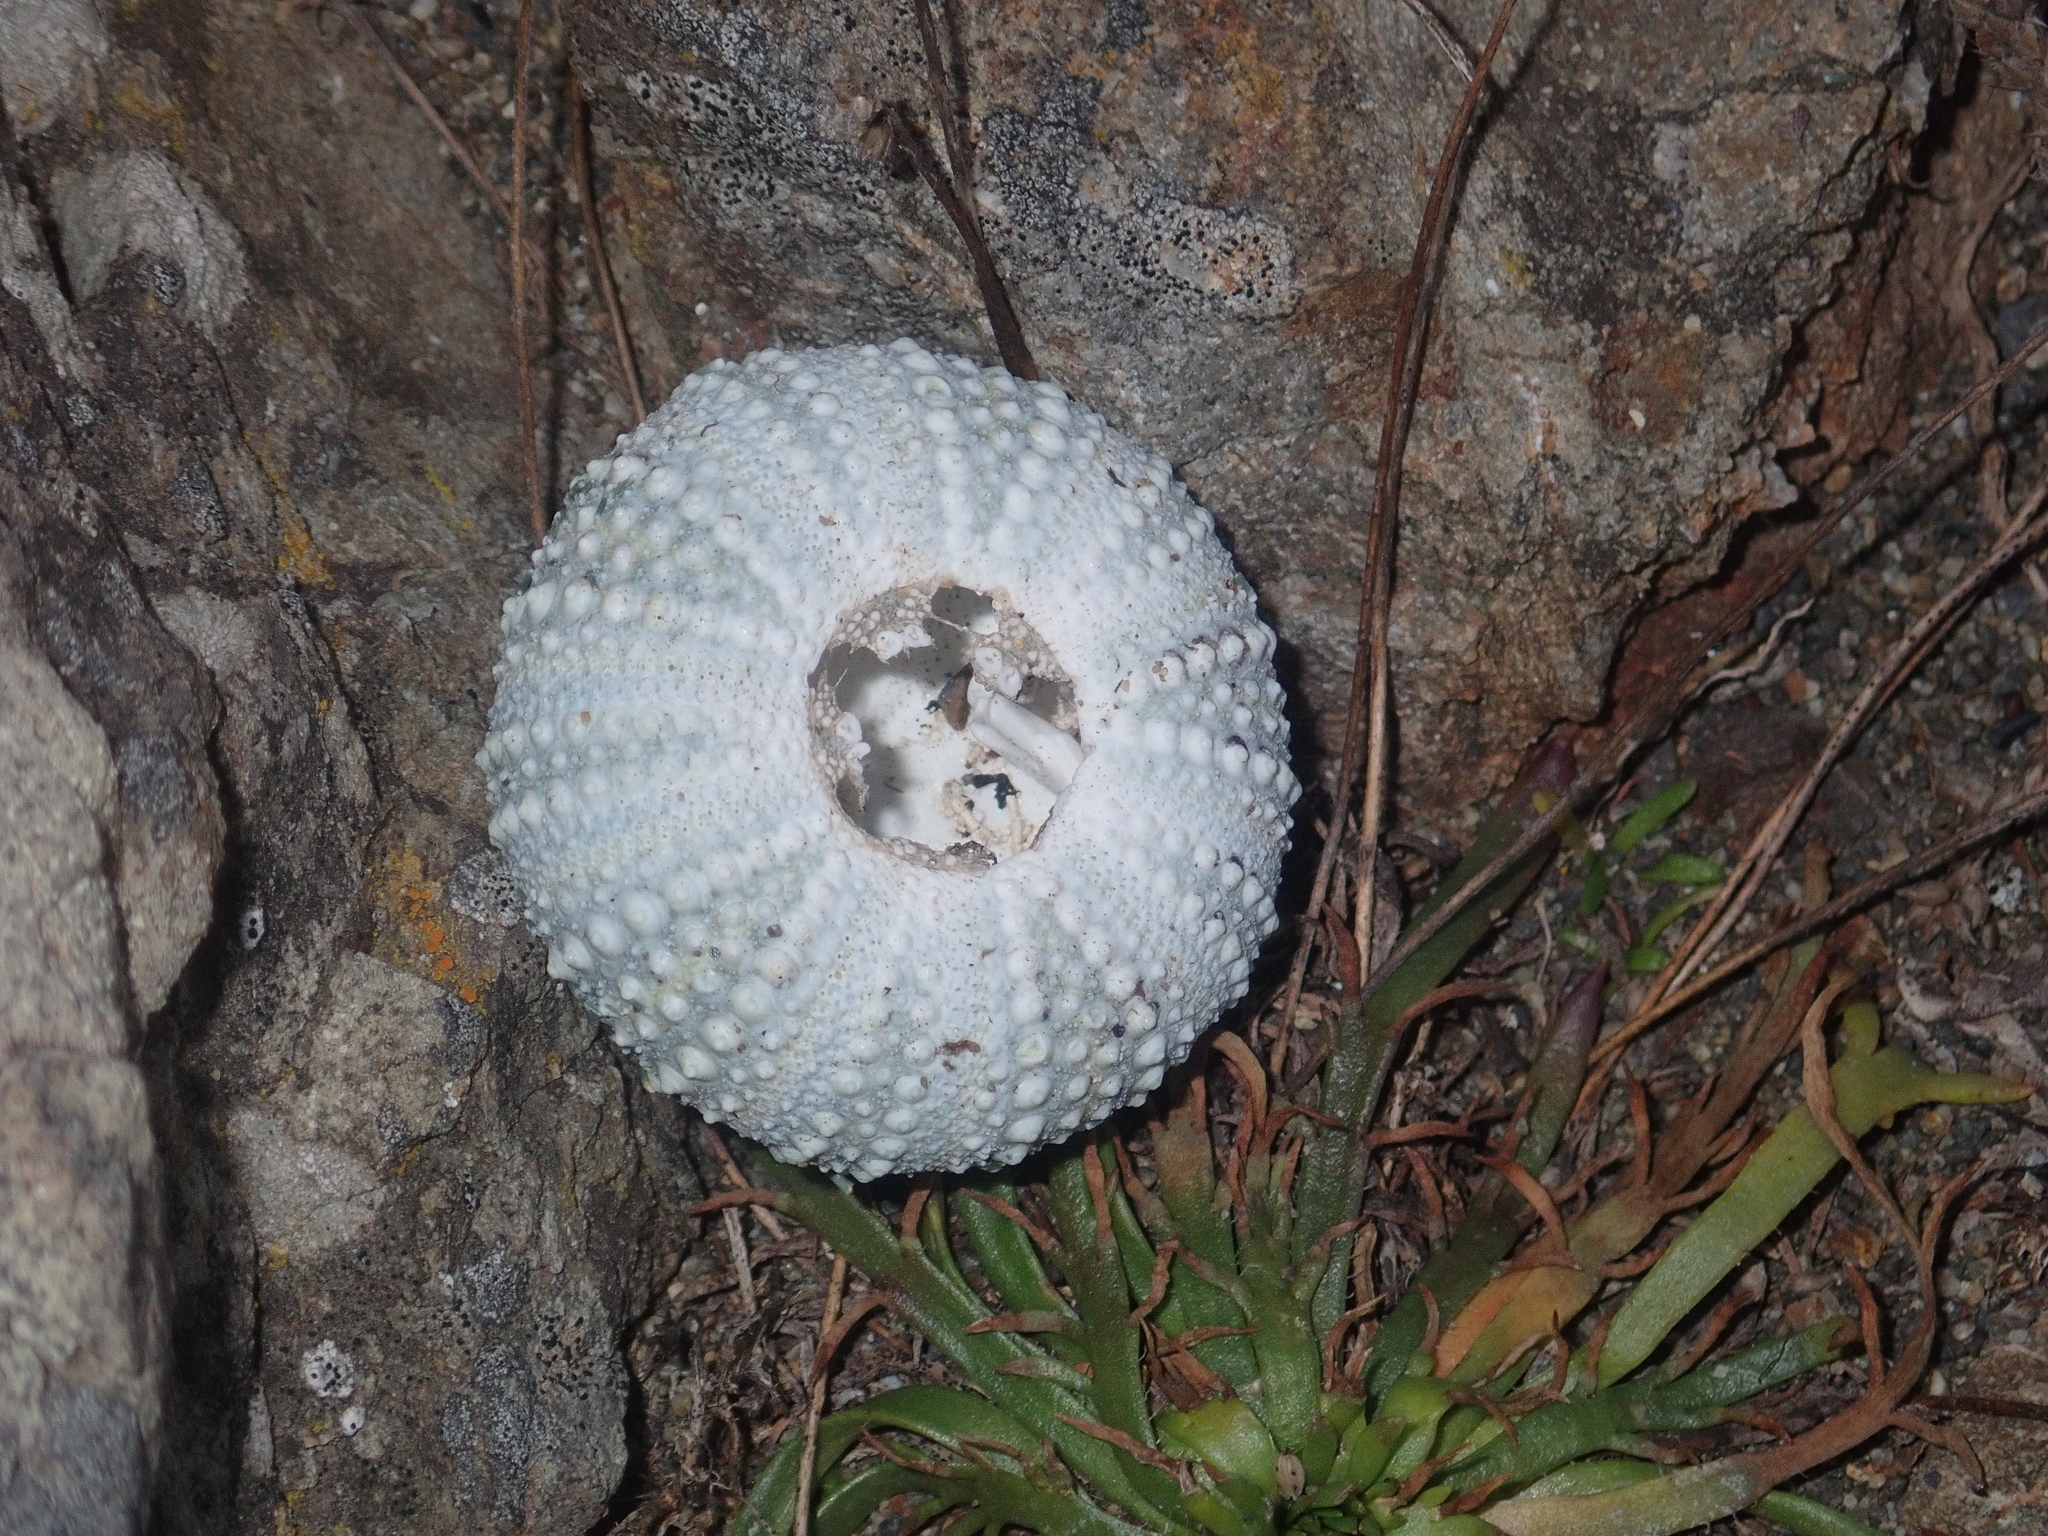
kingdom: Animalia
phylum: Echinodermata
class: Echinoidea
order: Camarodonta
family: Echinometridae
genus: Evechinus
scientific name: Evechinus chloroticus
